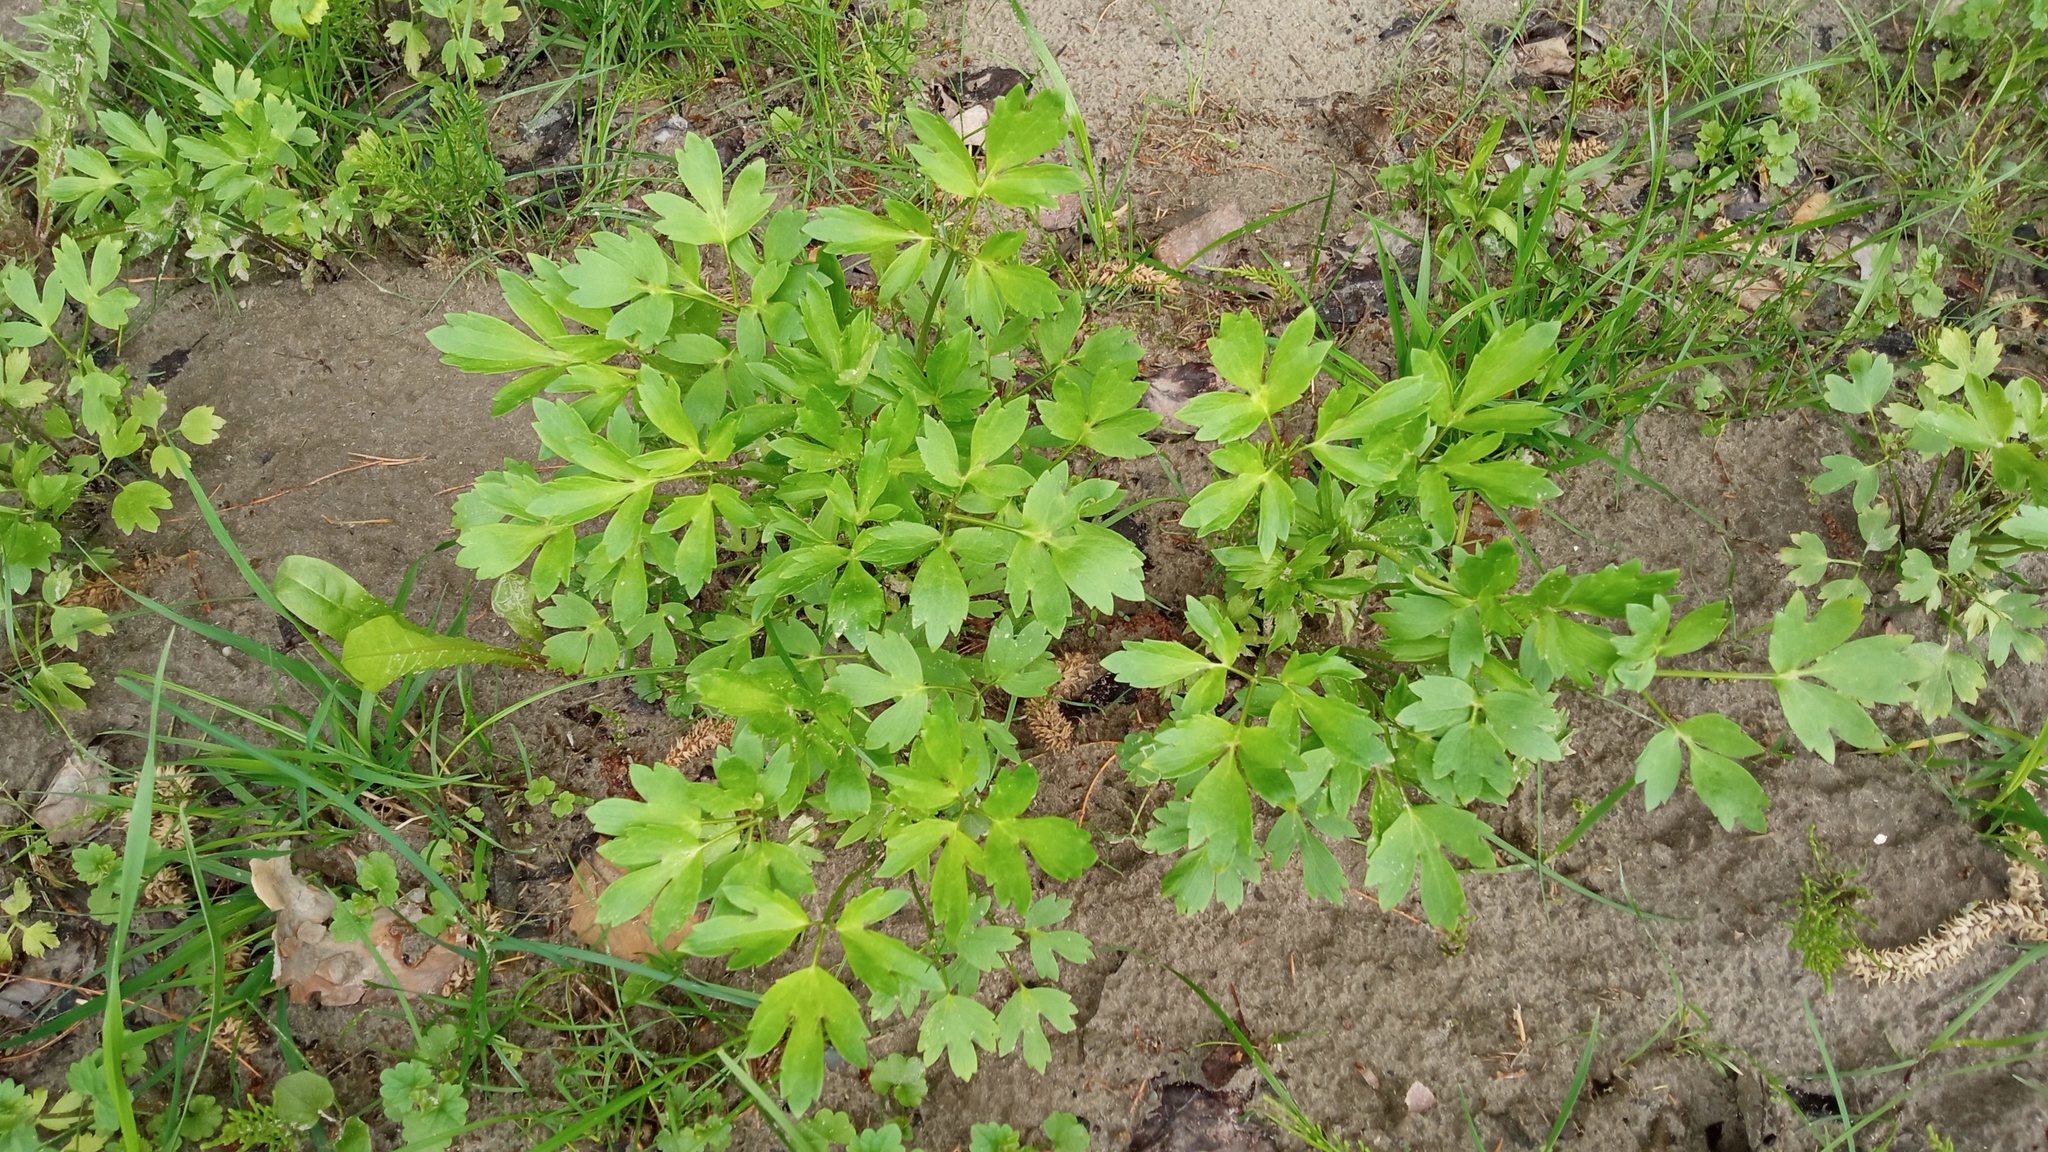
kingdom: Plantae
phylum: Tracheophyta
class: Magnoliopsida
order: Ranunculales
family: Ranunculaceae
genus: Ranunculus
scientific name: Ranunculus repens
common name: Creeping buttercup
